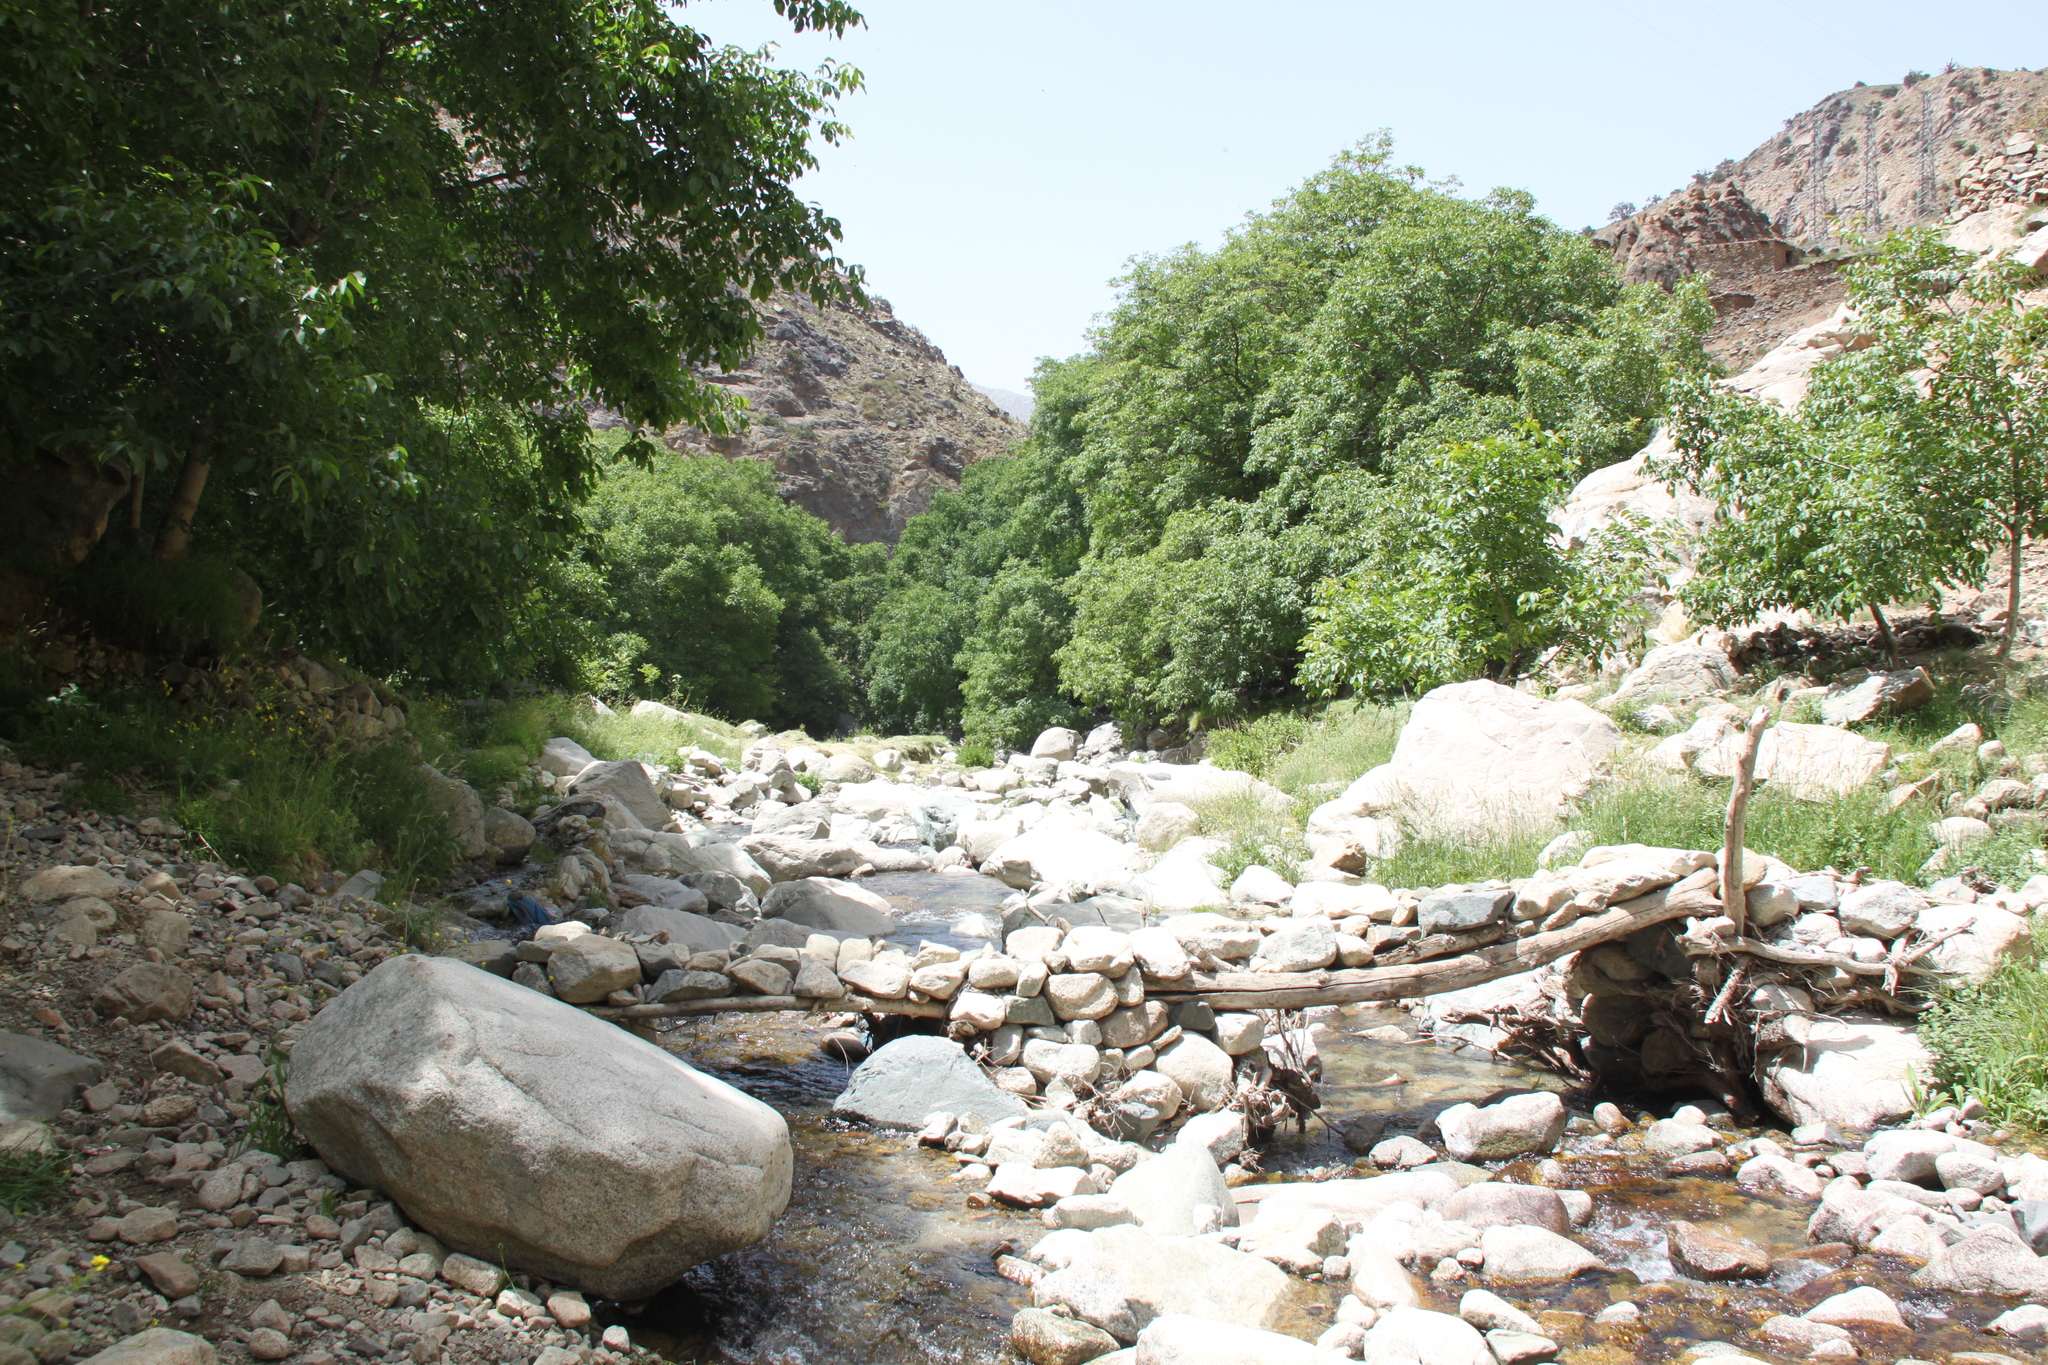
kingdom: Animalia
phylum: Arthropoda
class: Insecta
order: Odonata
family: Cordulegastridae
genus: Cordulegaster
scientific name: Cordulegaster princeps
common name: Atlas goldenring
